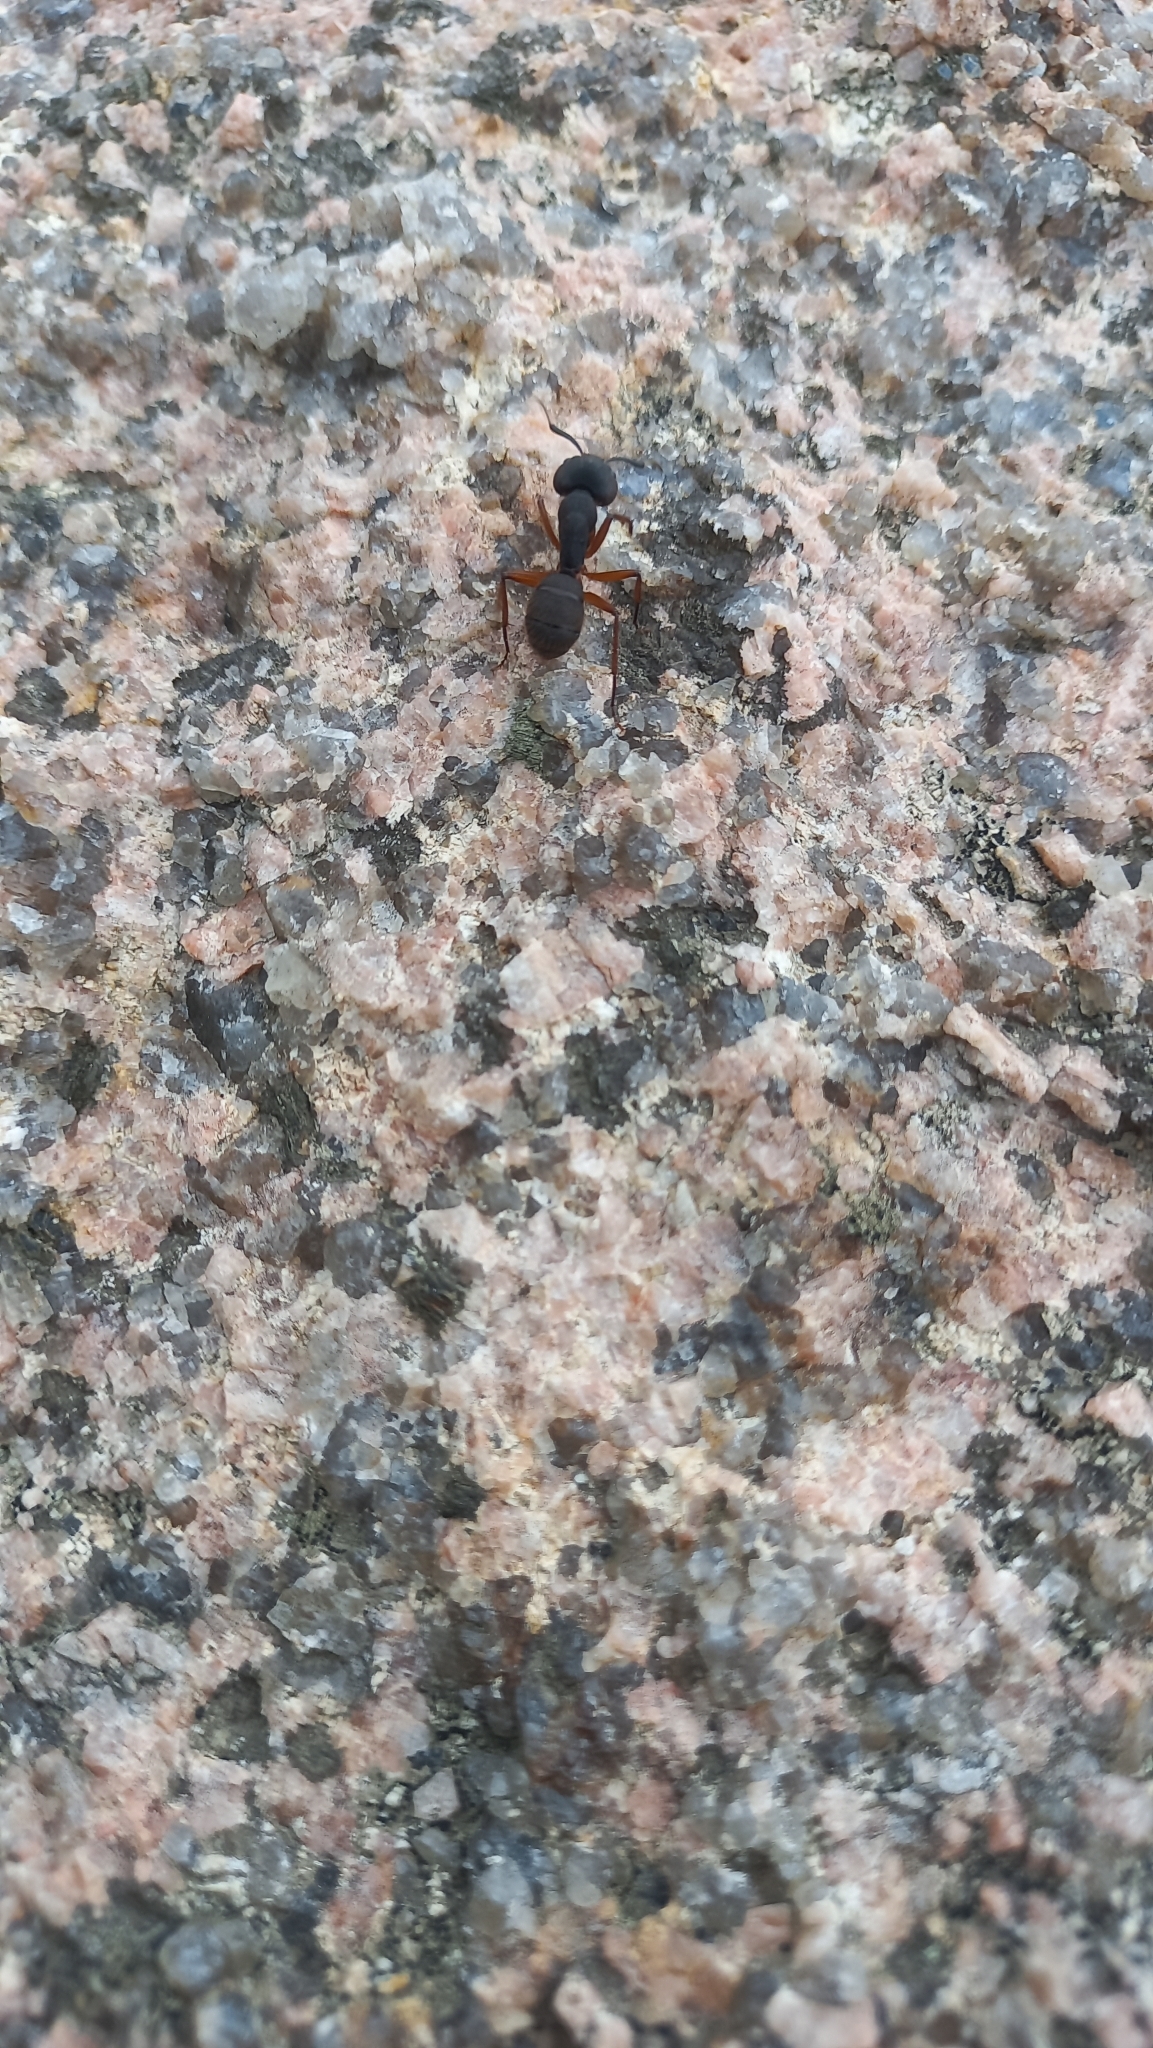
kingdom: Animalia
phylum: Arthropoda
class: Insecta
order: Hymenoptera
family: Formicidae
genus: Camponotus
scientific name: Camponotus rufipes
